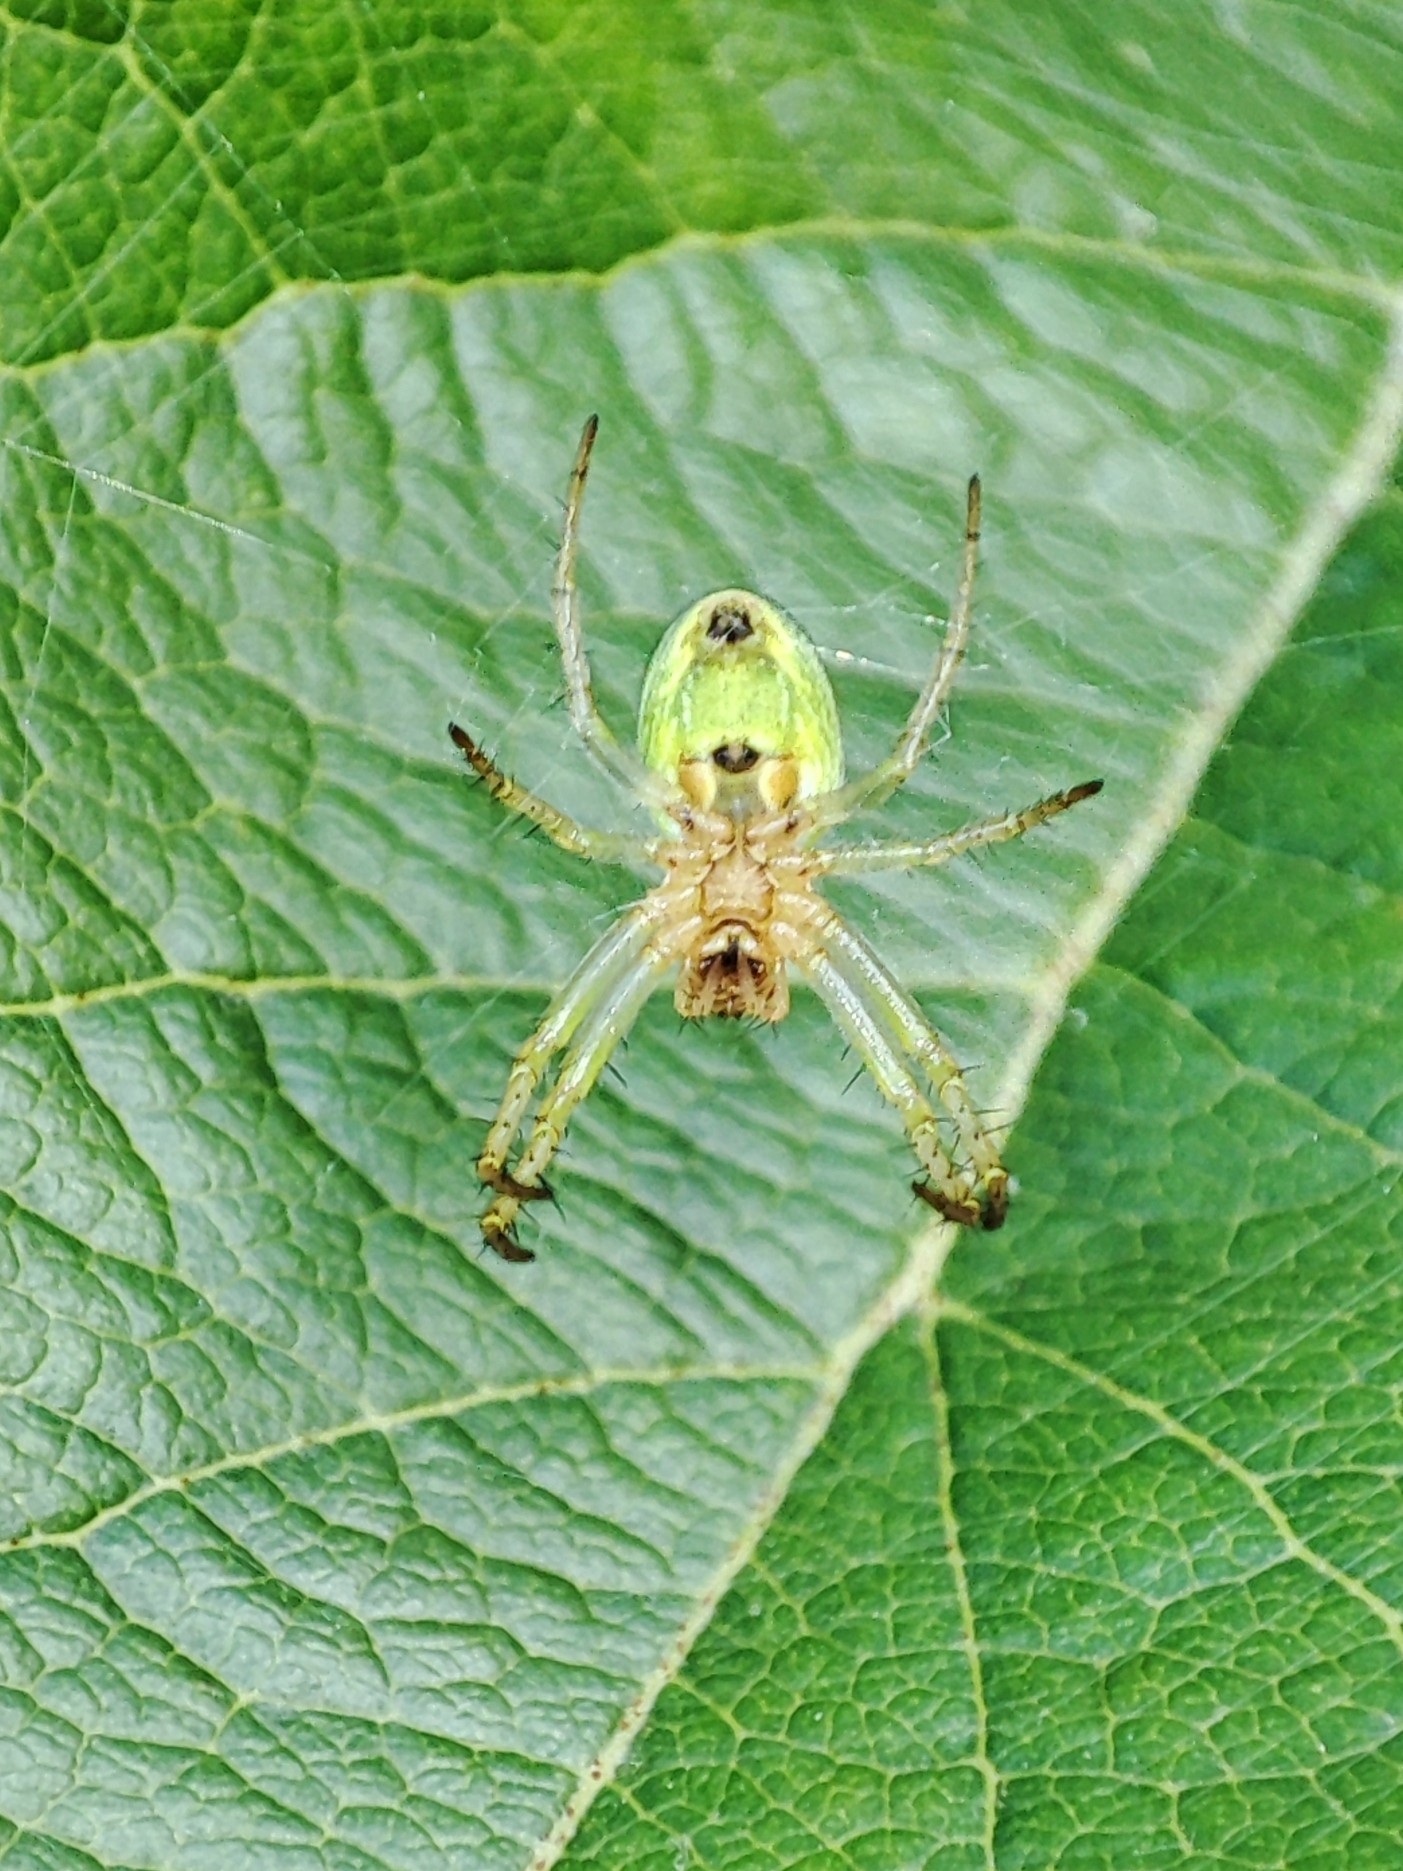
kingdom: Animalia
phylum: Arthropoda
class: Arachnida
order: Araneae
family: Araneidae
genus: Araniella
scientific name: Araniella
